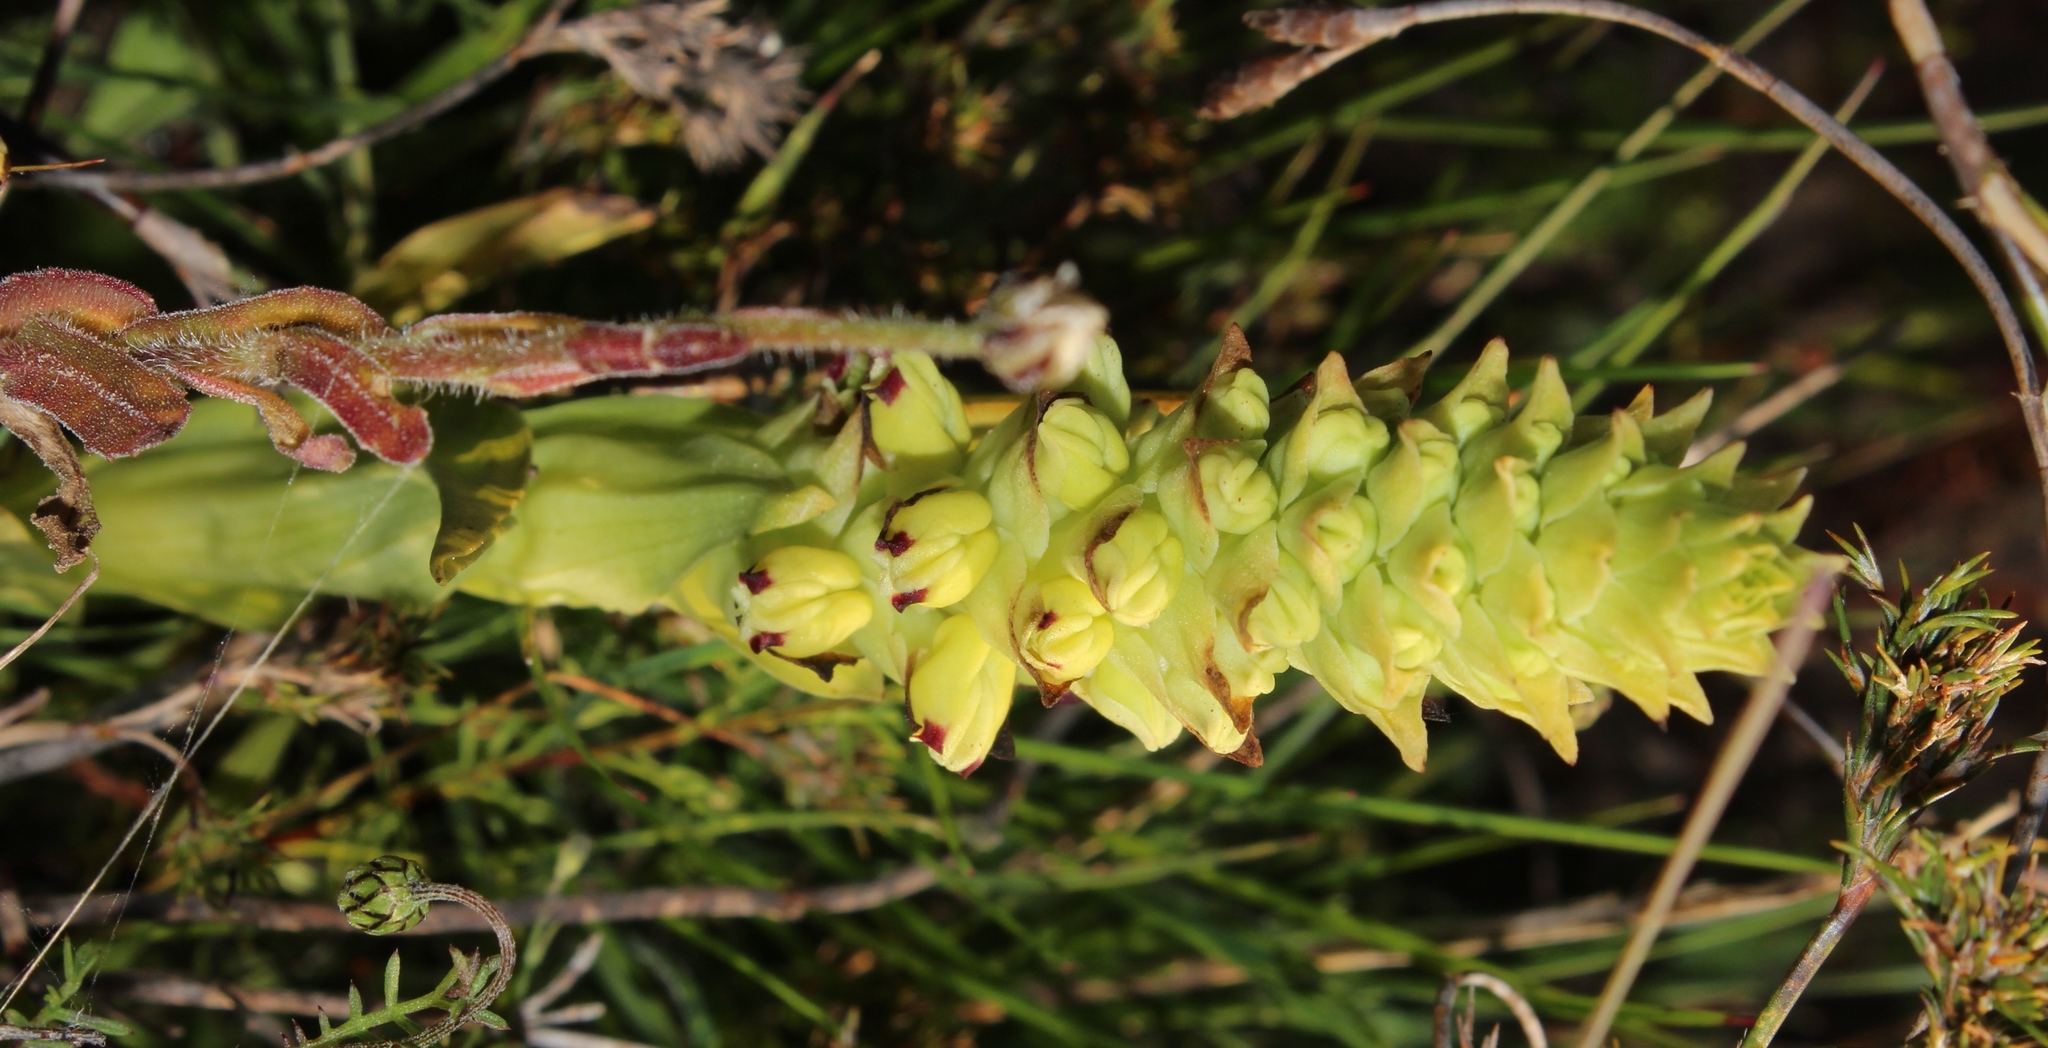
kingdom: Plantae
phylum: Tracheophyta
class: Liliopsida
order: Asparagales
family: Orchidaceae
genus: Corycium
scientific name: Corycium orobanchoides
